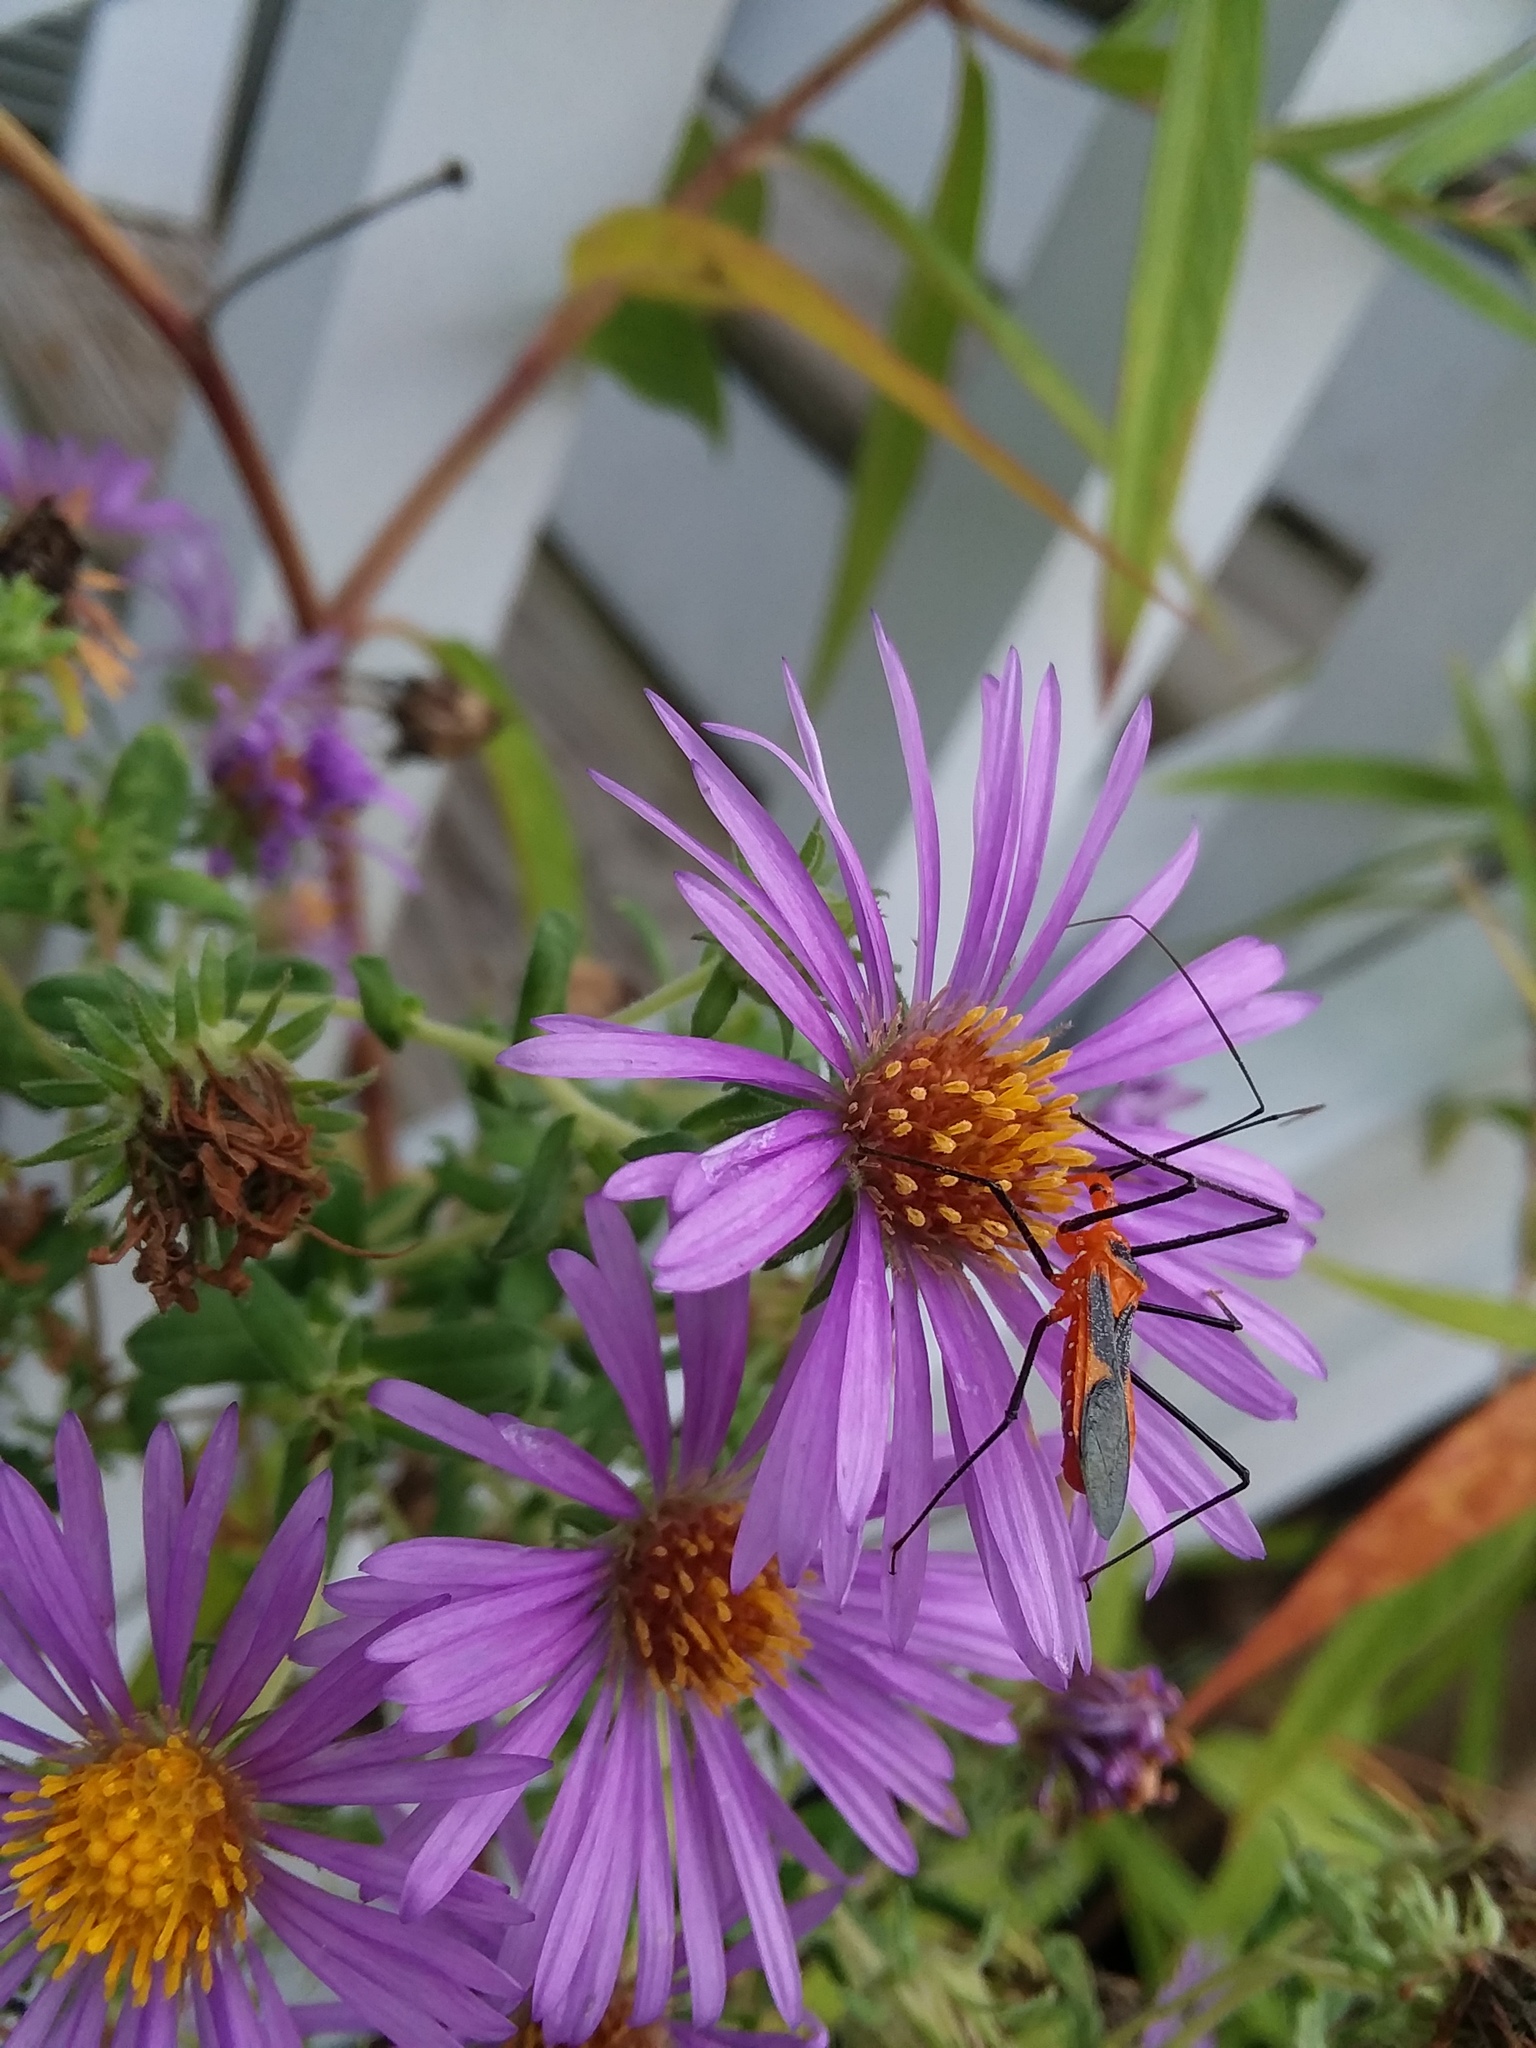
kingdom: Animalia
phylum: Arthropoda
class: Insecta
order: Hemiptera
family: Reduviidae
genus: Zelus
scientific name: Zelus longipes
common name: Milkweed assassin bug
